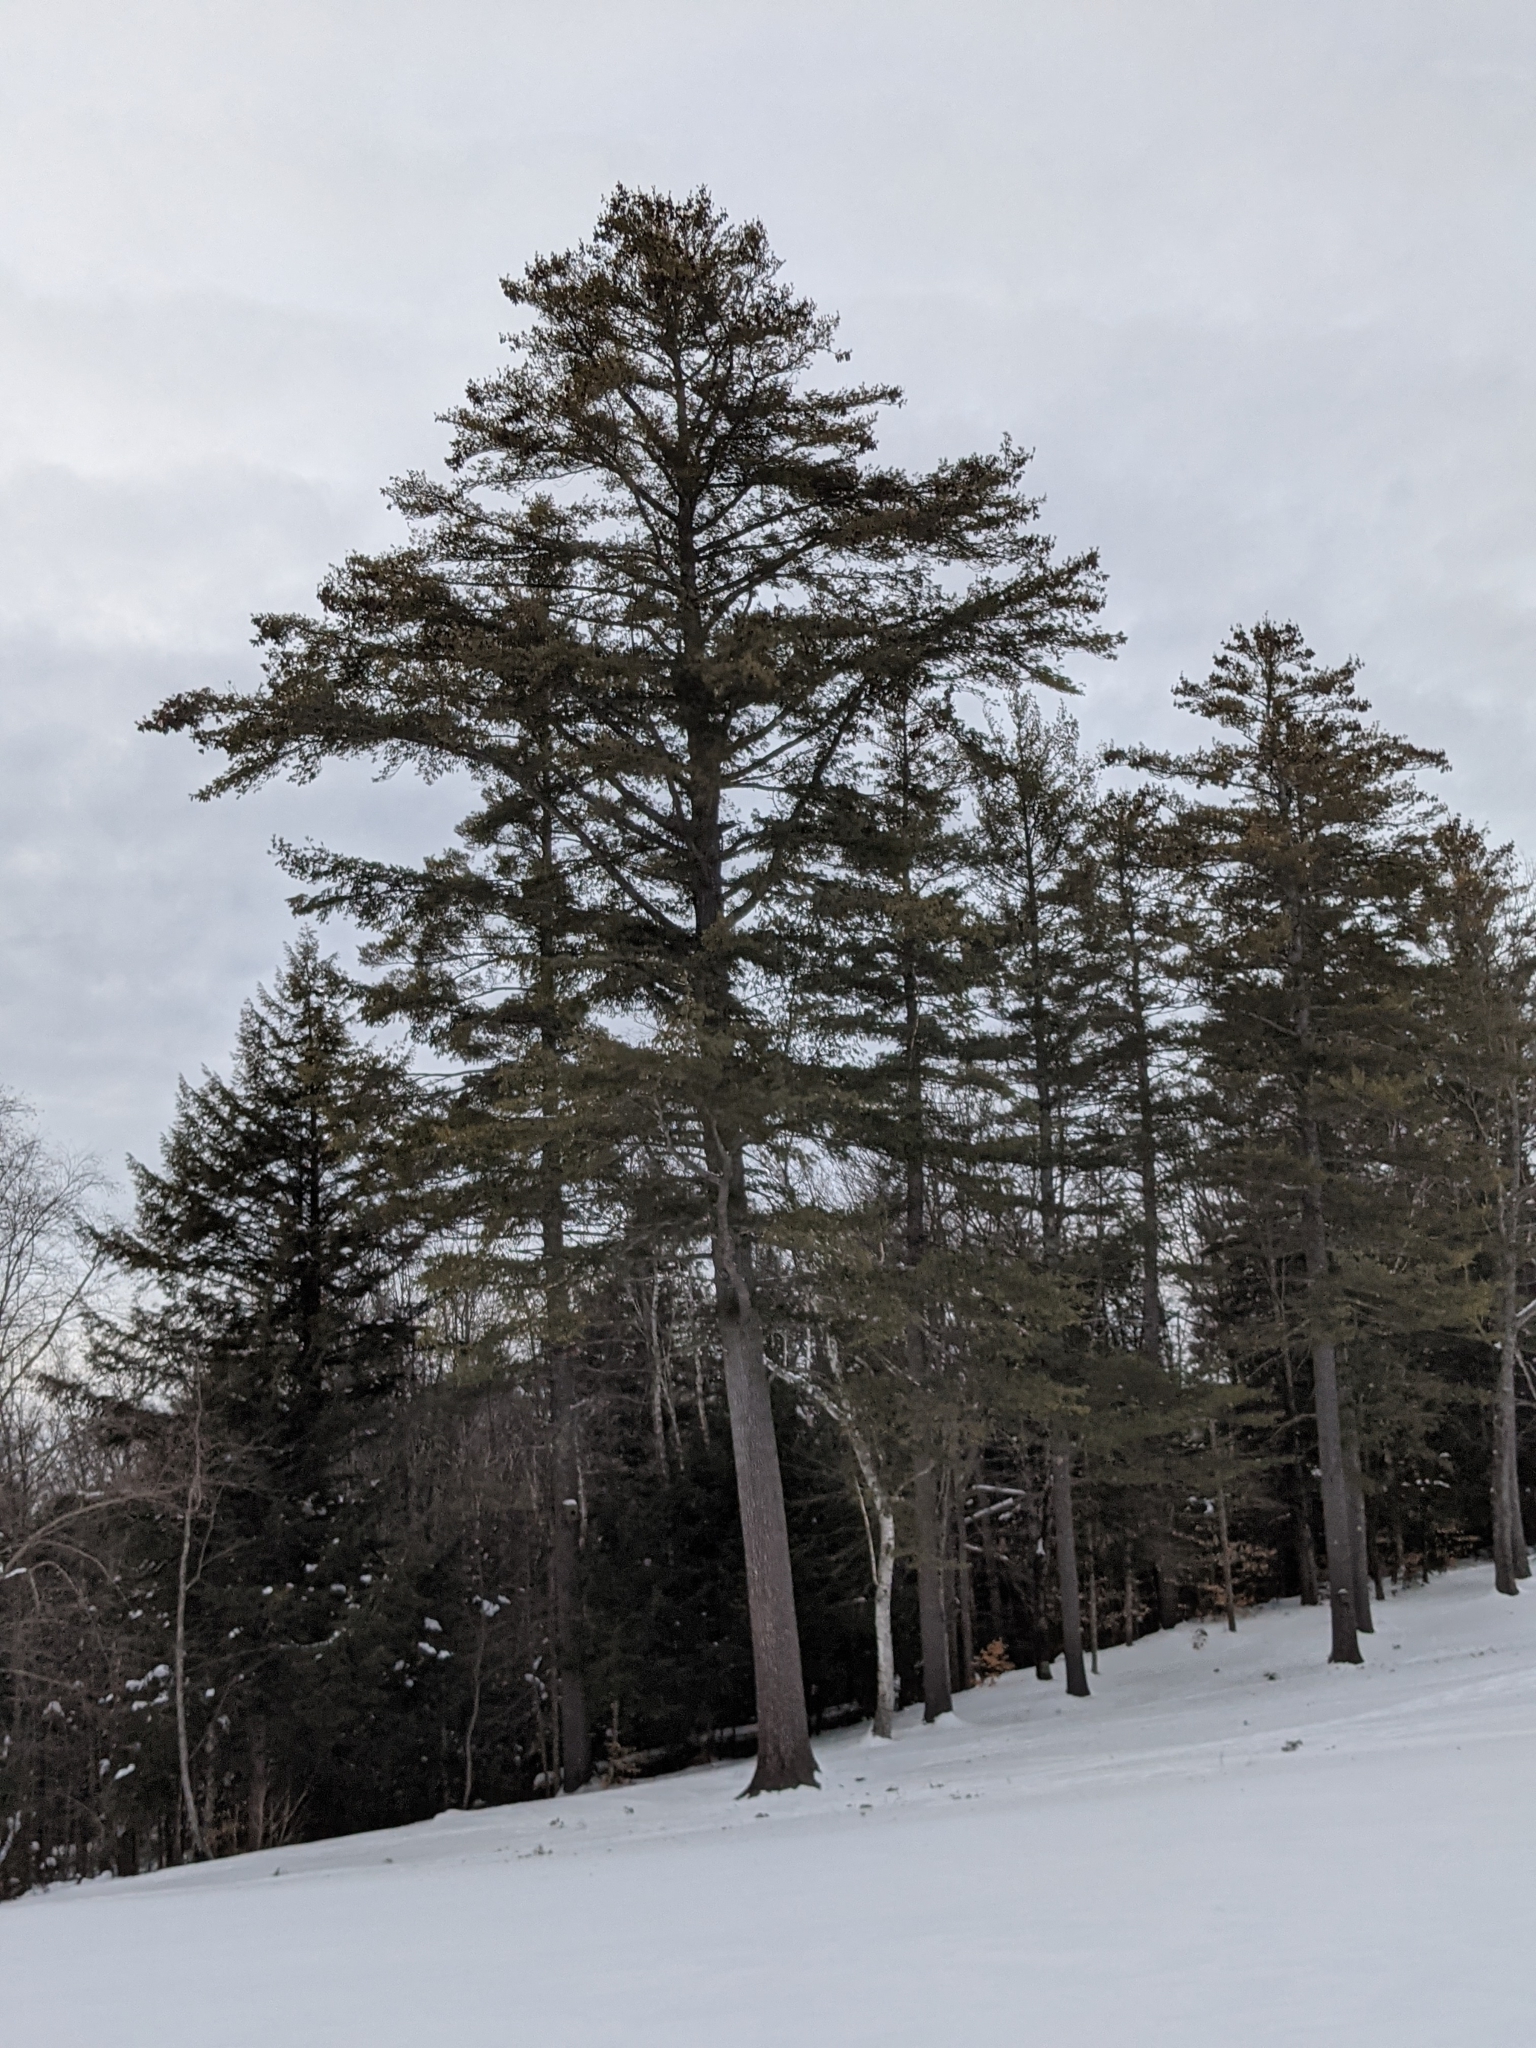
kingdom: Plantae
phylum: Tracheophyta
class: Pinopsida
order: Pinales
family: Pinaceae
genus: Pinus
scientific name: Pinus strobus
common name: Weymouth pine
